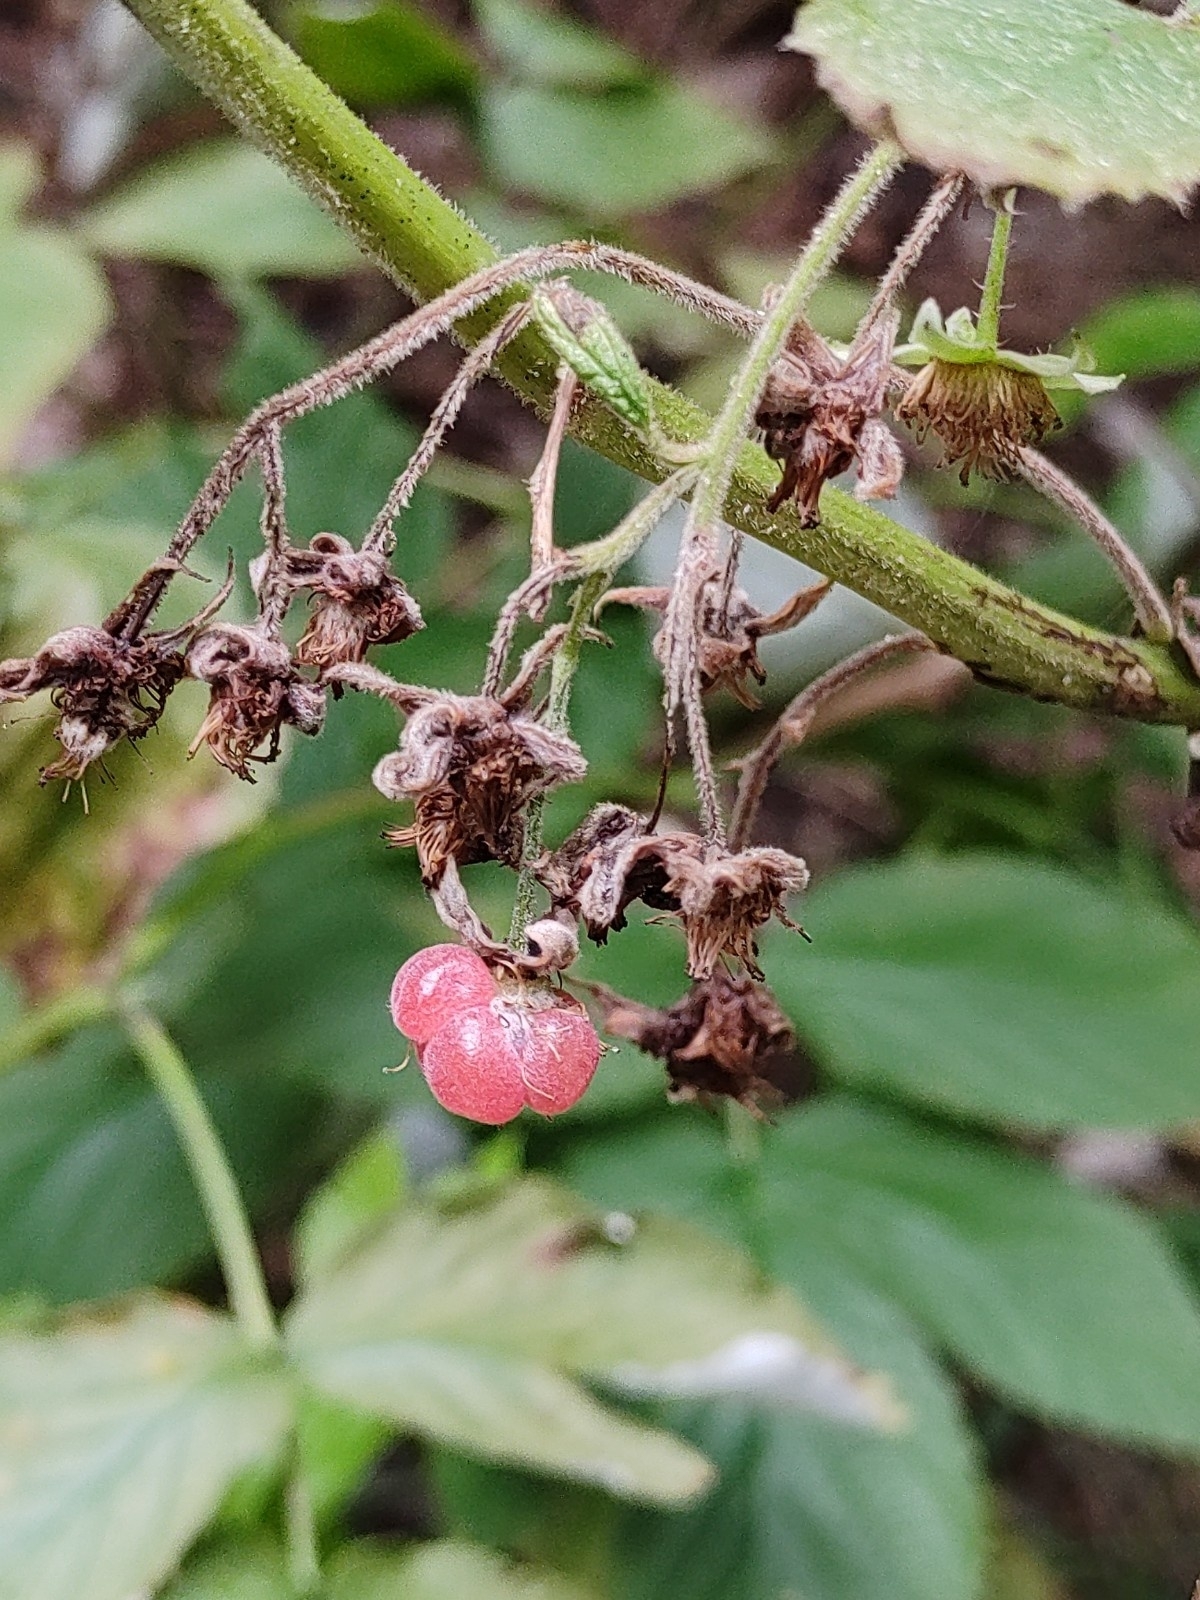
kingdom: Plantae
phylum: Tracheophyta
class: Magnoliopsida
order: Rosales
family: Rosaceae
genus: Rubus
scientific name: Rubus idaeus
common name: Raspberry
